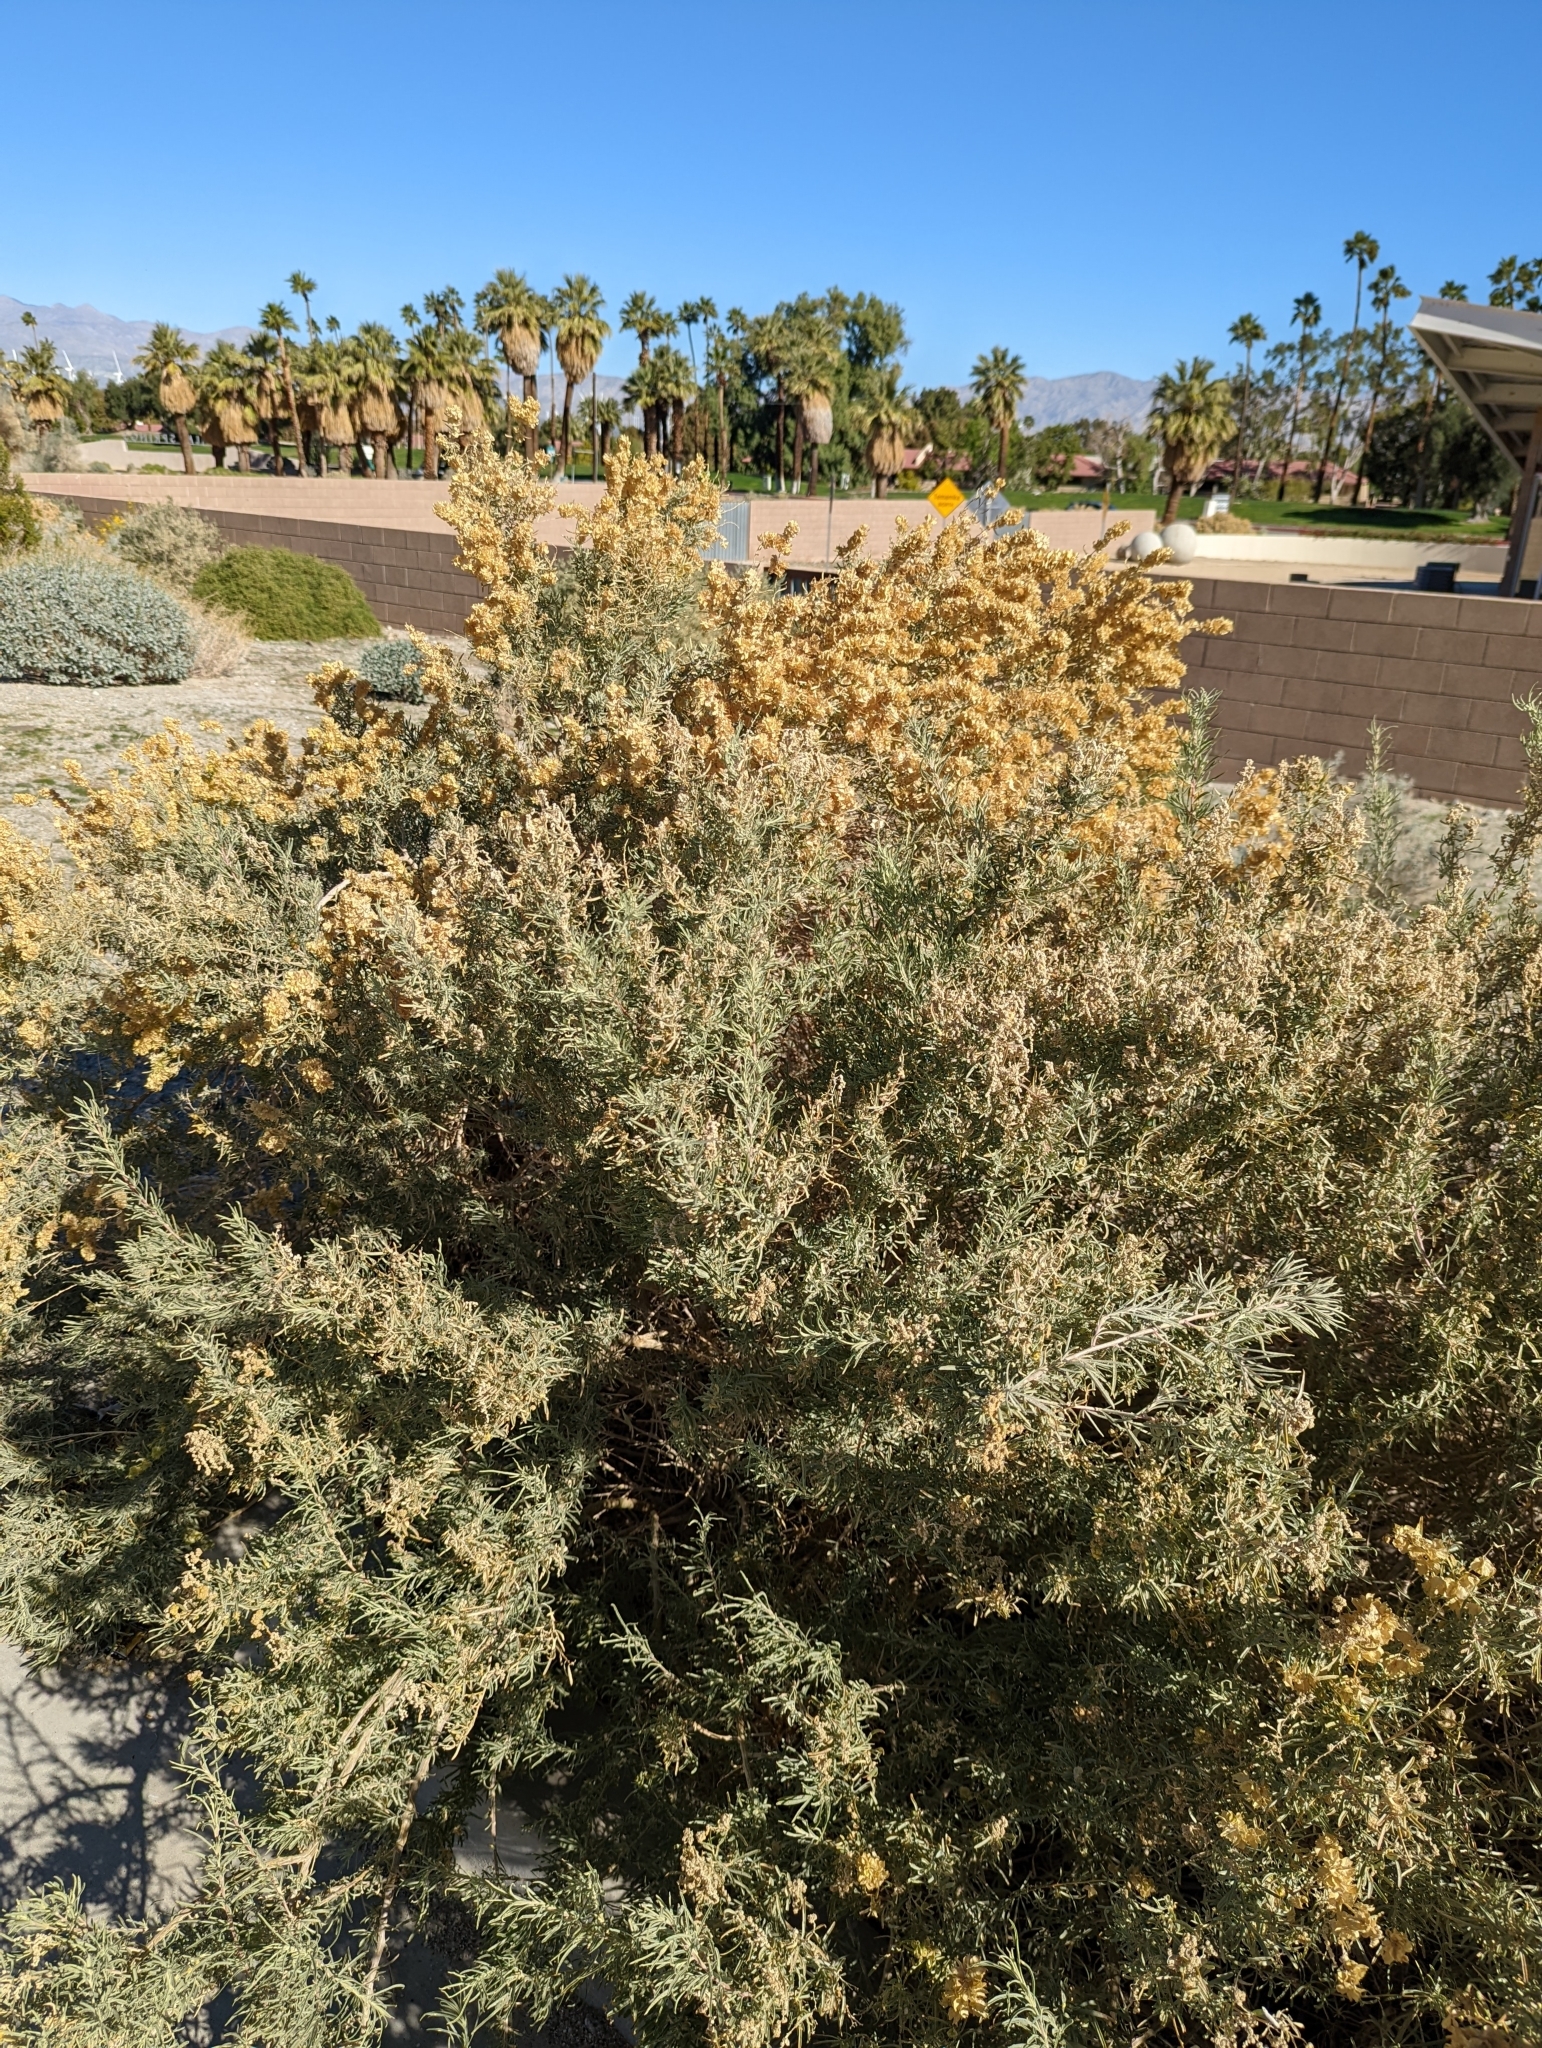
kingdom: Plantae
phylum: Tracheophyta
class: Magnoliopsida
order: Caryophyllales
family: Amaranthaceae
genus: Atriplex
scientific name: Atriplex canescens
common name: Four-wing saltbush
